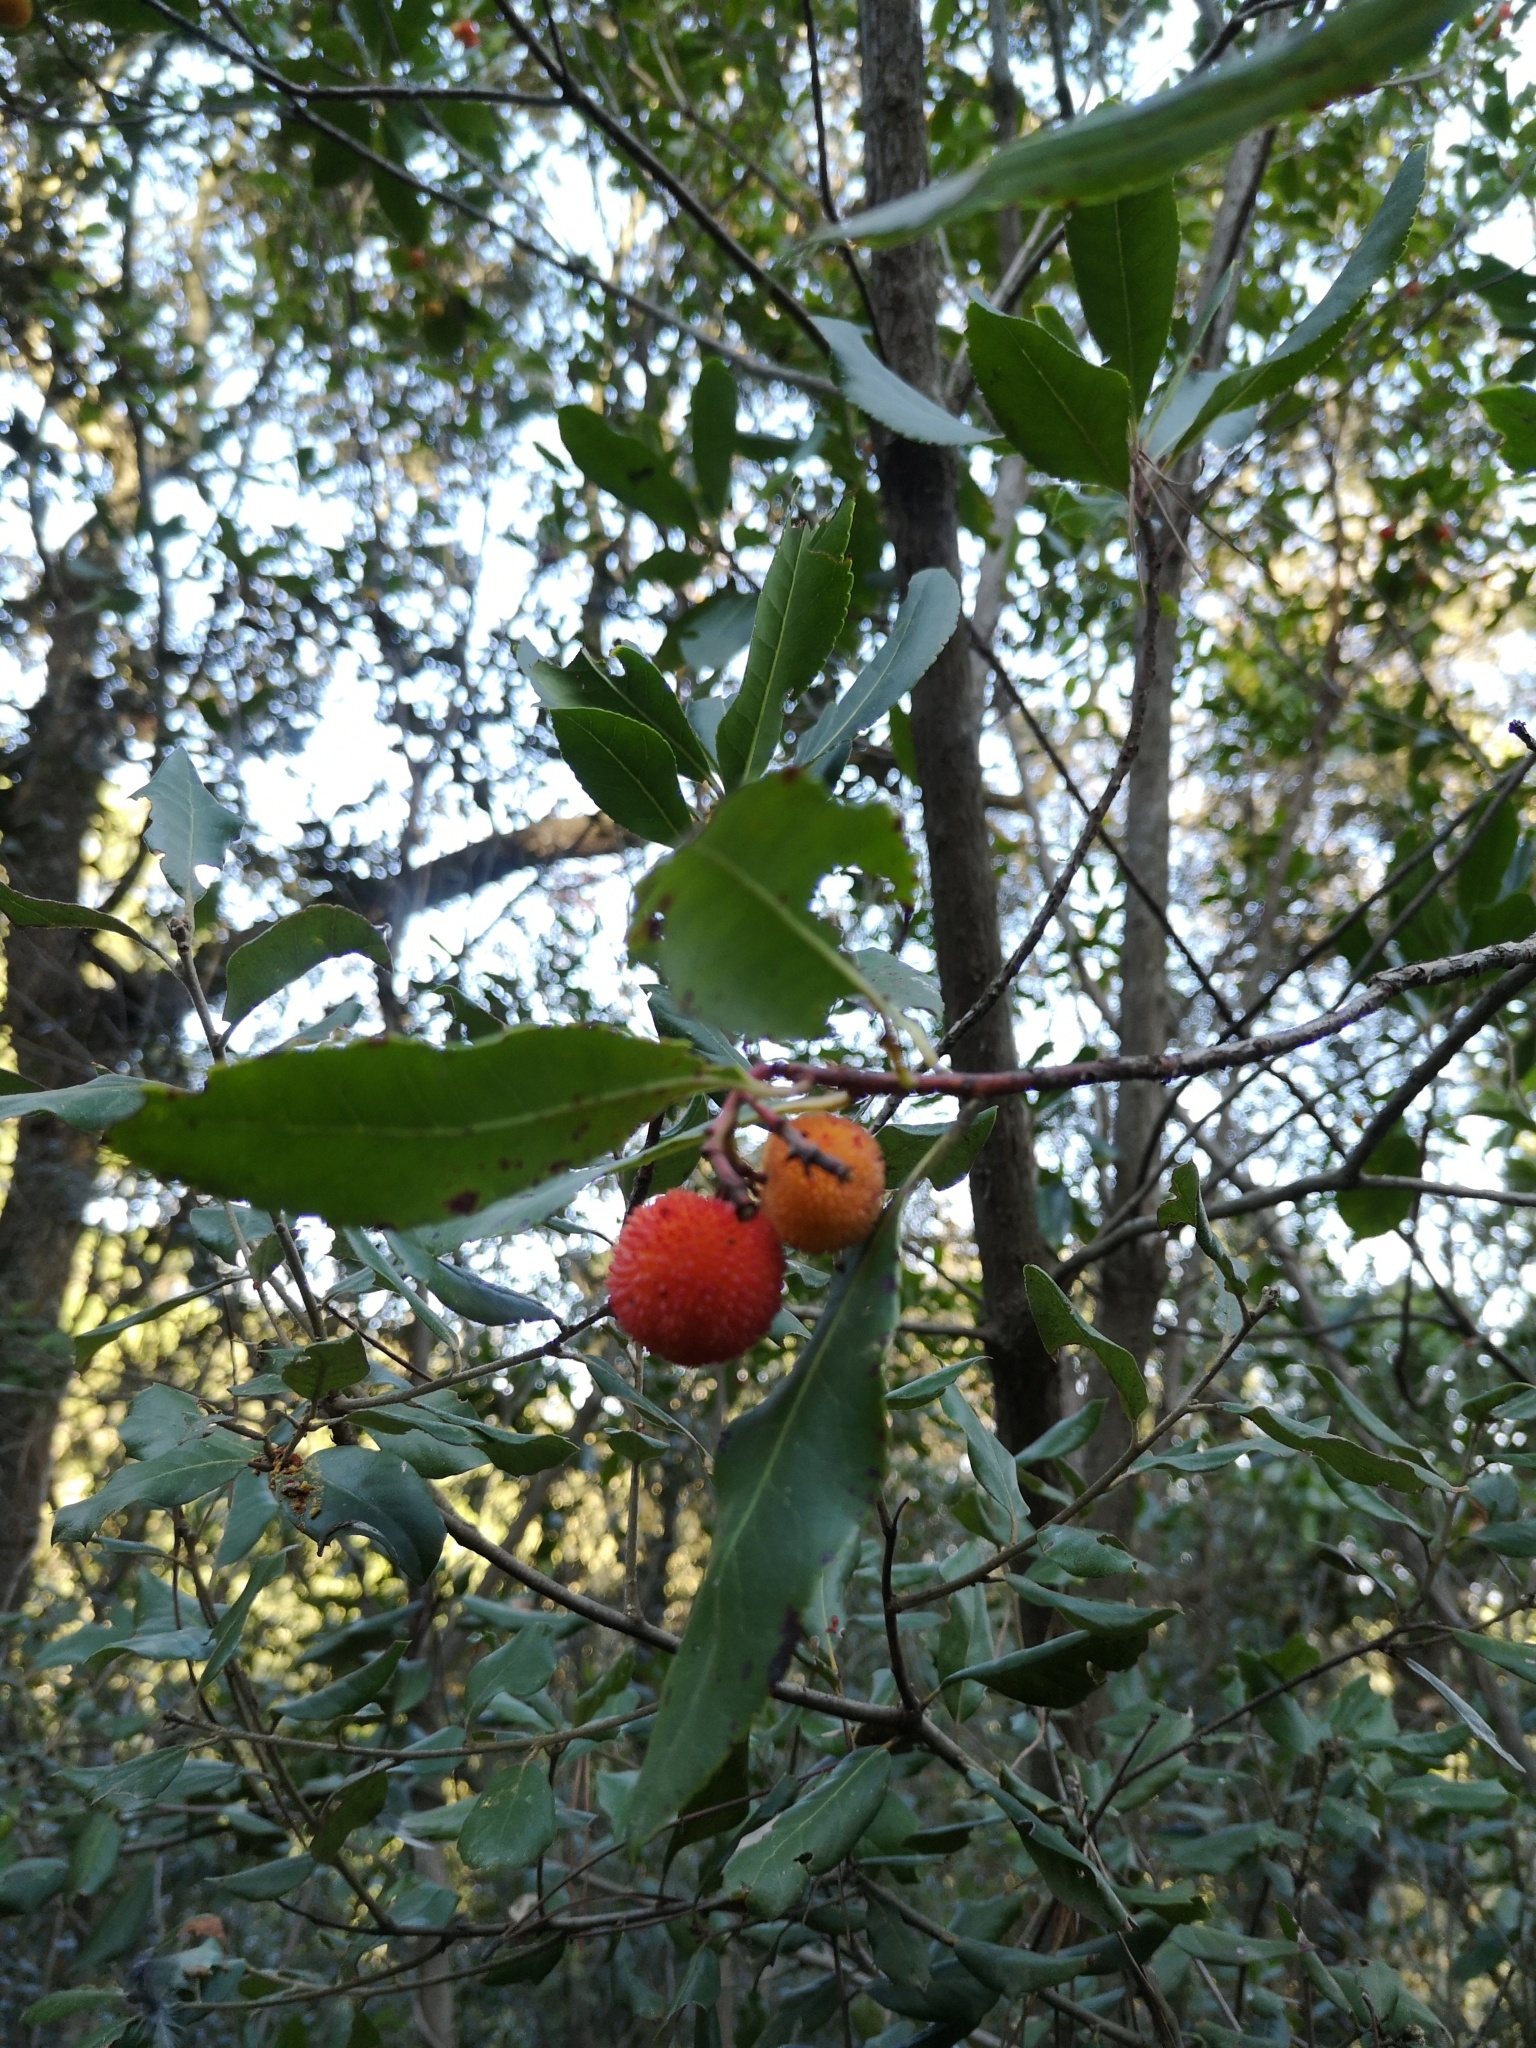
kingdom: Plantae
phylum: Tracheophyta
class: Magnoliopsida
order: Ericales
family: Ericaceae
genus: Arbutus
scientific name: Arbutus unedo
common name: Strawberry-tree
